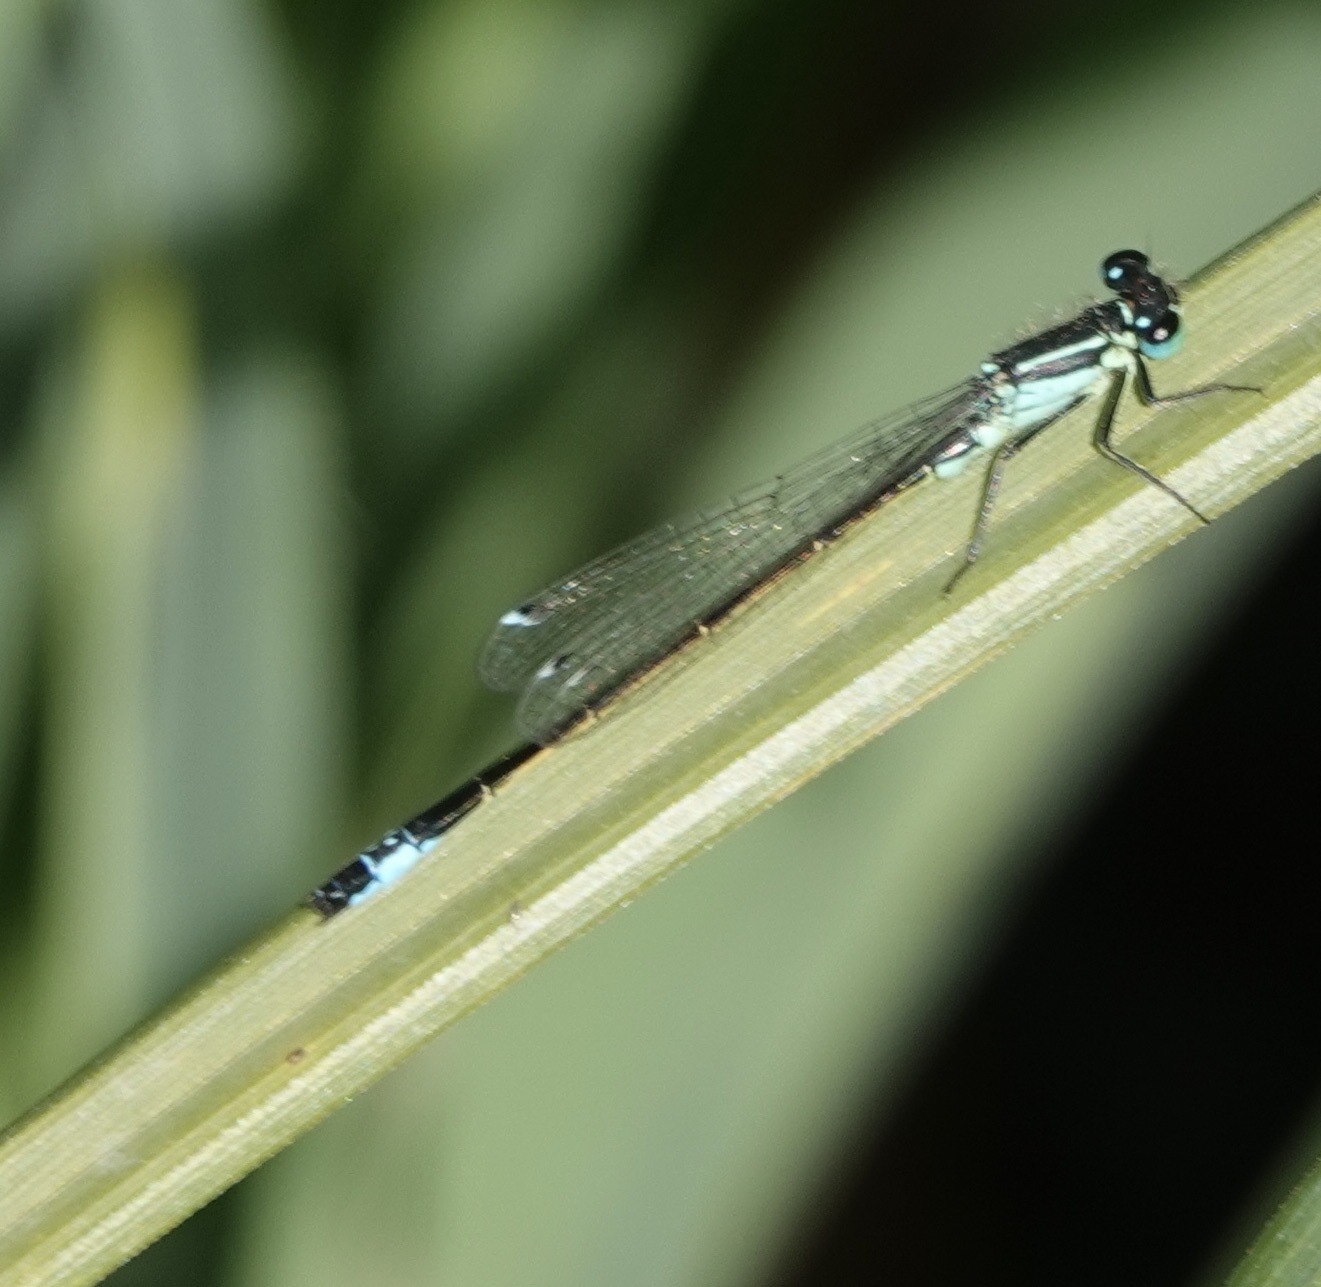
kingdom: Animalia
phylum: Arthropoda
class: Insecta
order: Odonata
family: Coenagrionidae
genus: Ischnura
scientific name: Ischnura elegans
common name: Blue-tailed damselfly
